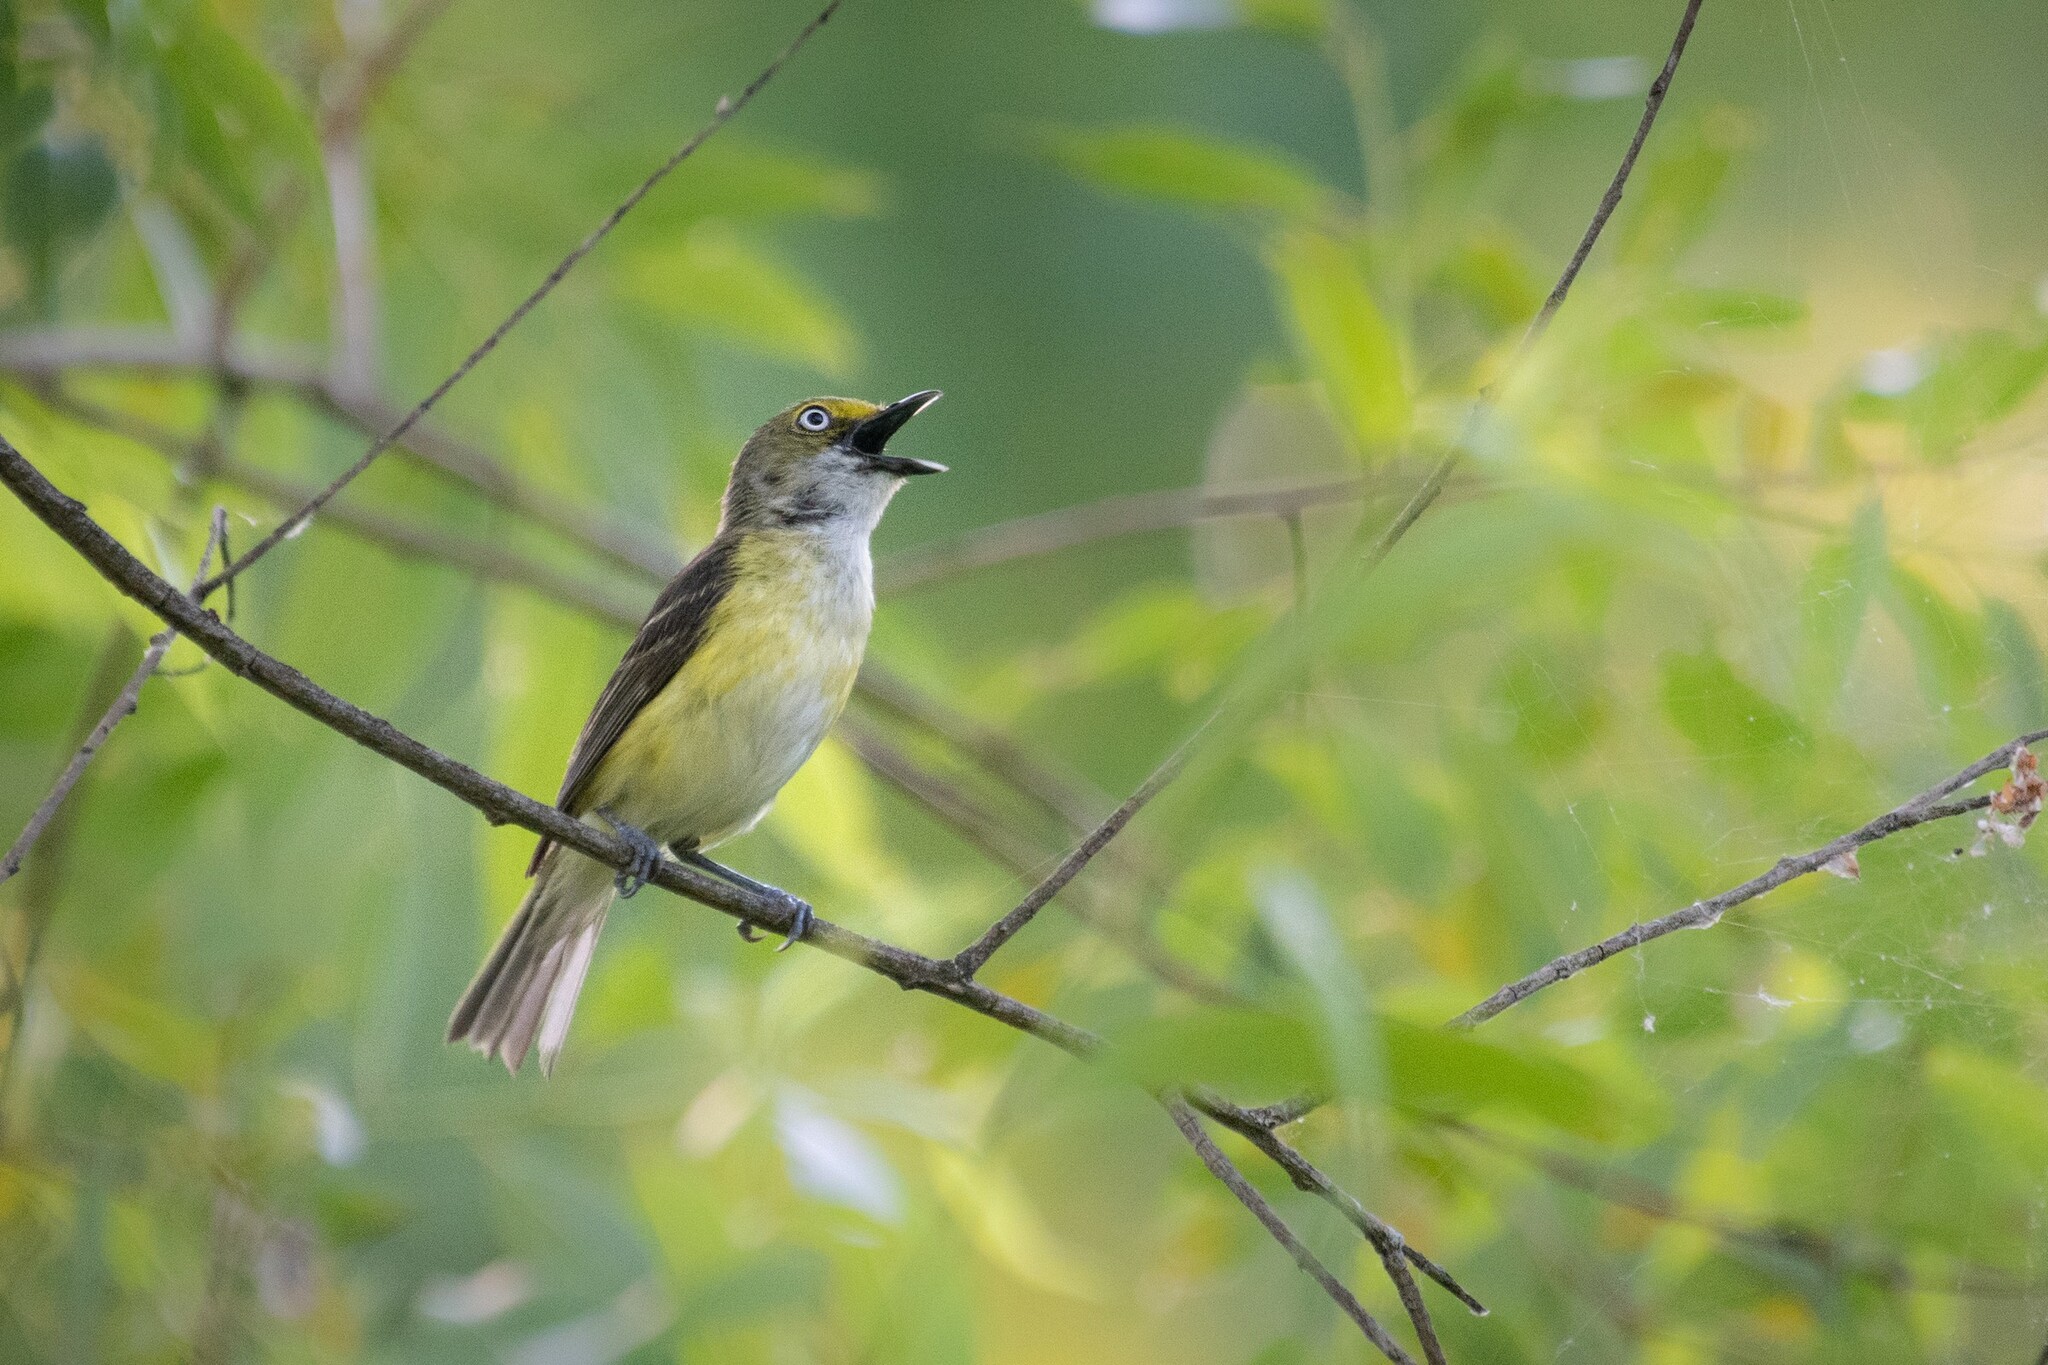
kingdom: Animalia
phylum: Chordata
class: Aves
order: Passeriformes
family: Vireonidae
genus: Vireo
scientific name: Vireo griseus
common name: White-eyed vireo
